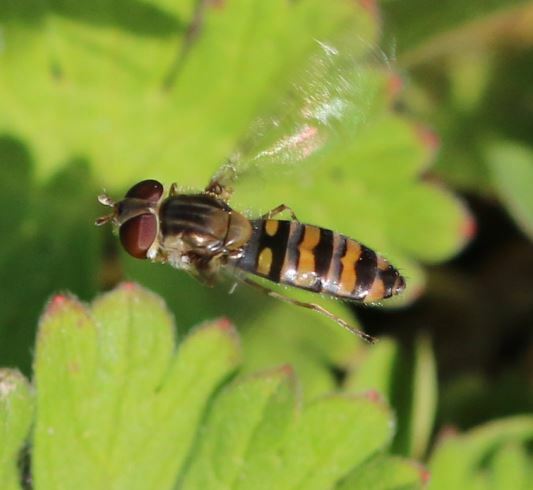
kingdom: Animalia
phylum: Arthropoda
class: Insecta
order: Diptera
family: Syrphidae
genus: Episyrphus
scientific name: Episyrphus balteatus
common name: Marmalade hoverfly
